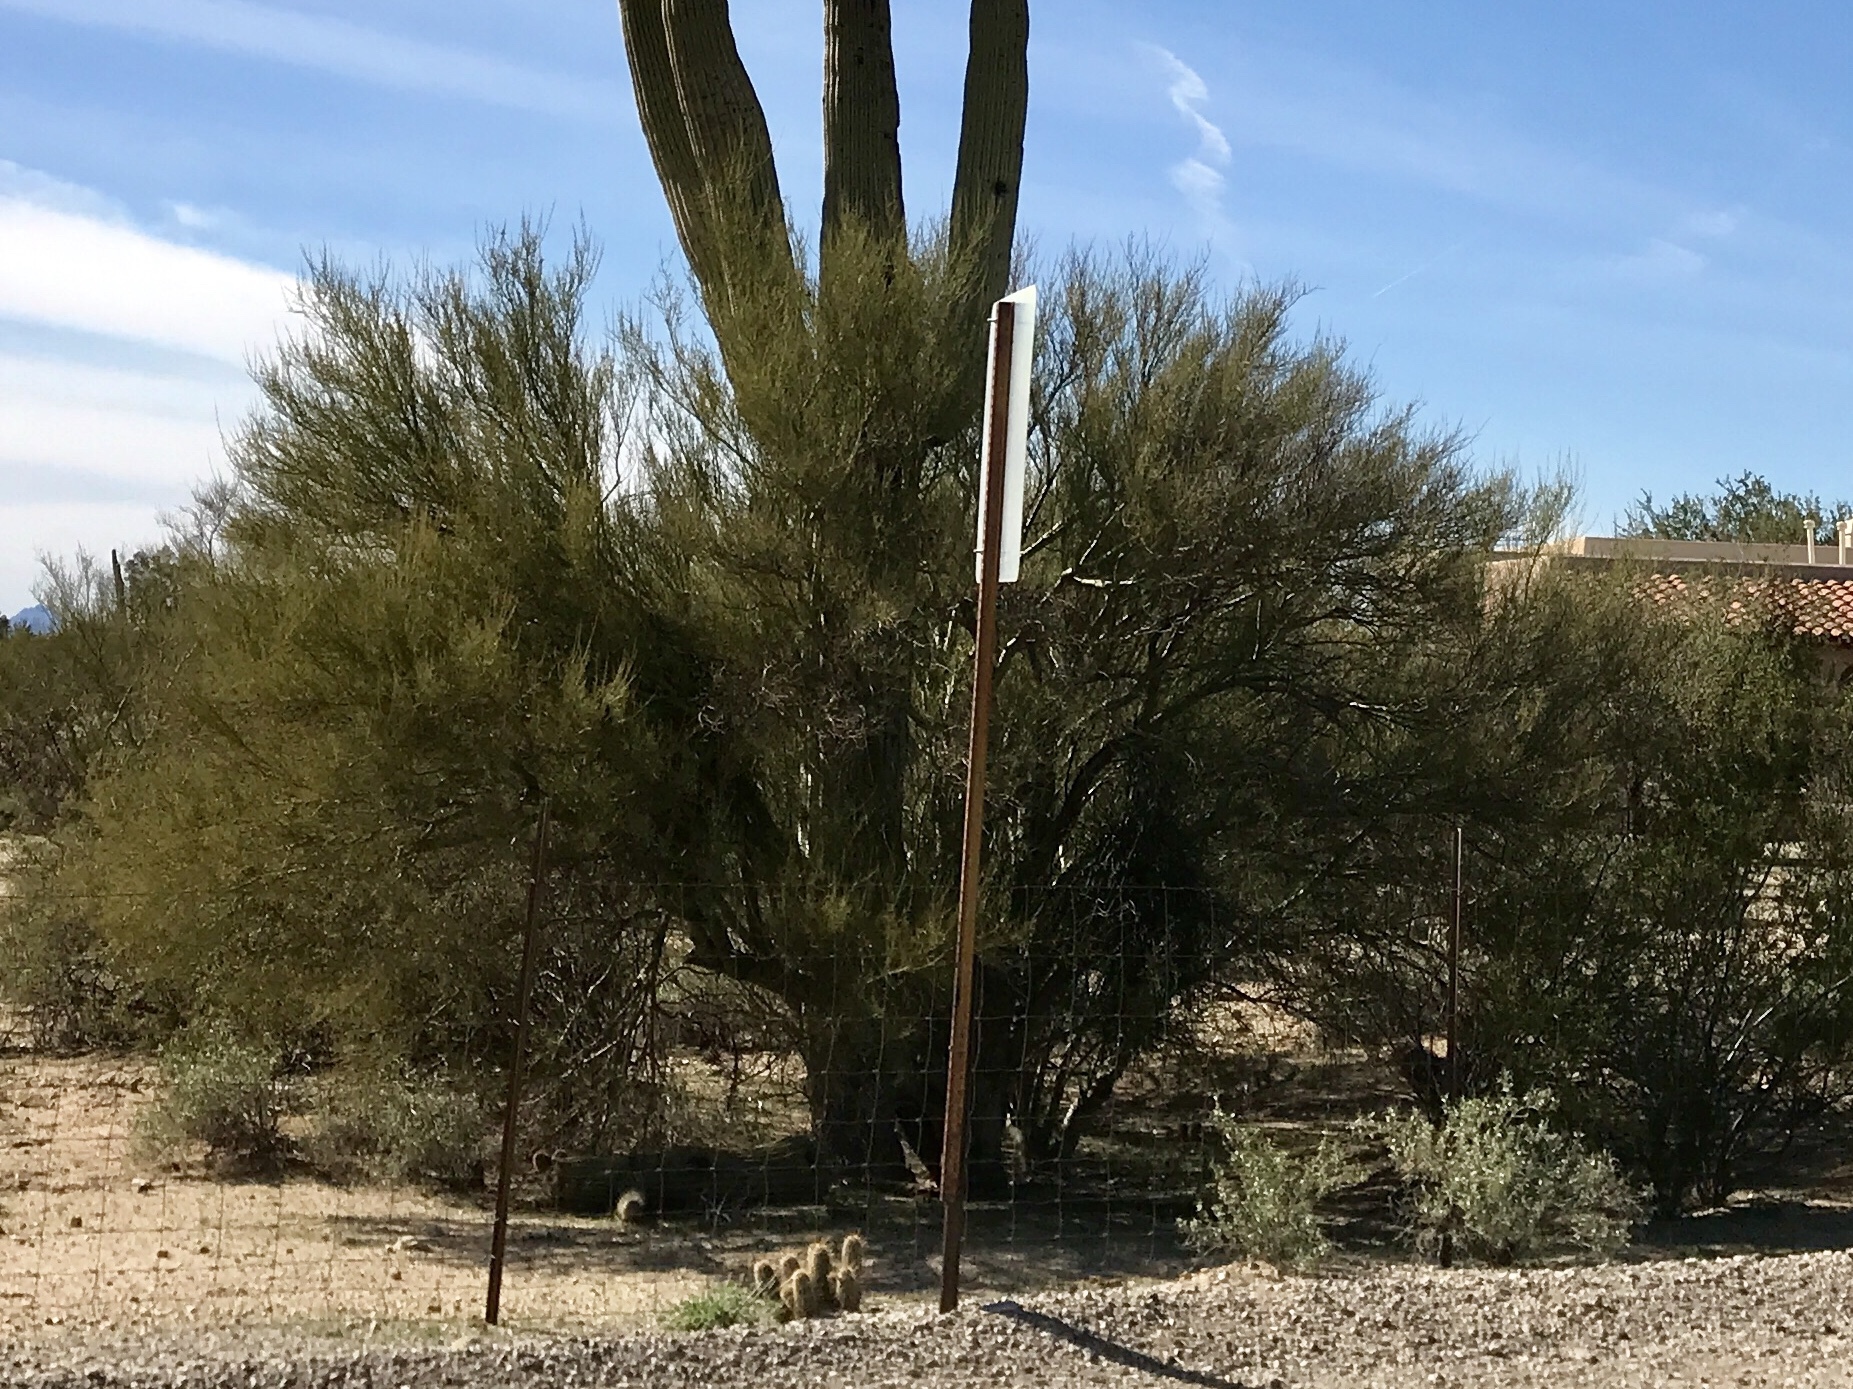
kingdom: Plantae
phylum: Tracheophyta
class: Magnoliopsida
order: Fabales
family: Fabaceae
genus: Parkinsonia
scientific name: Parkinsonia microphylla
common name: Yellow paloverde
